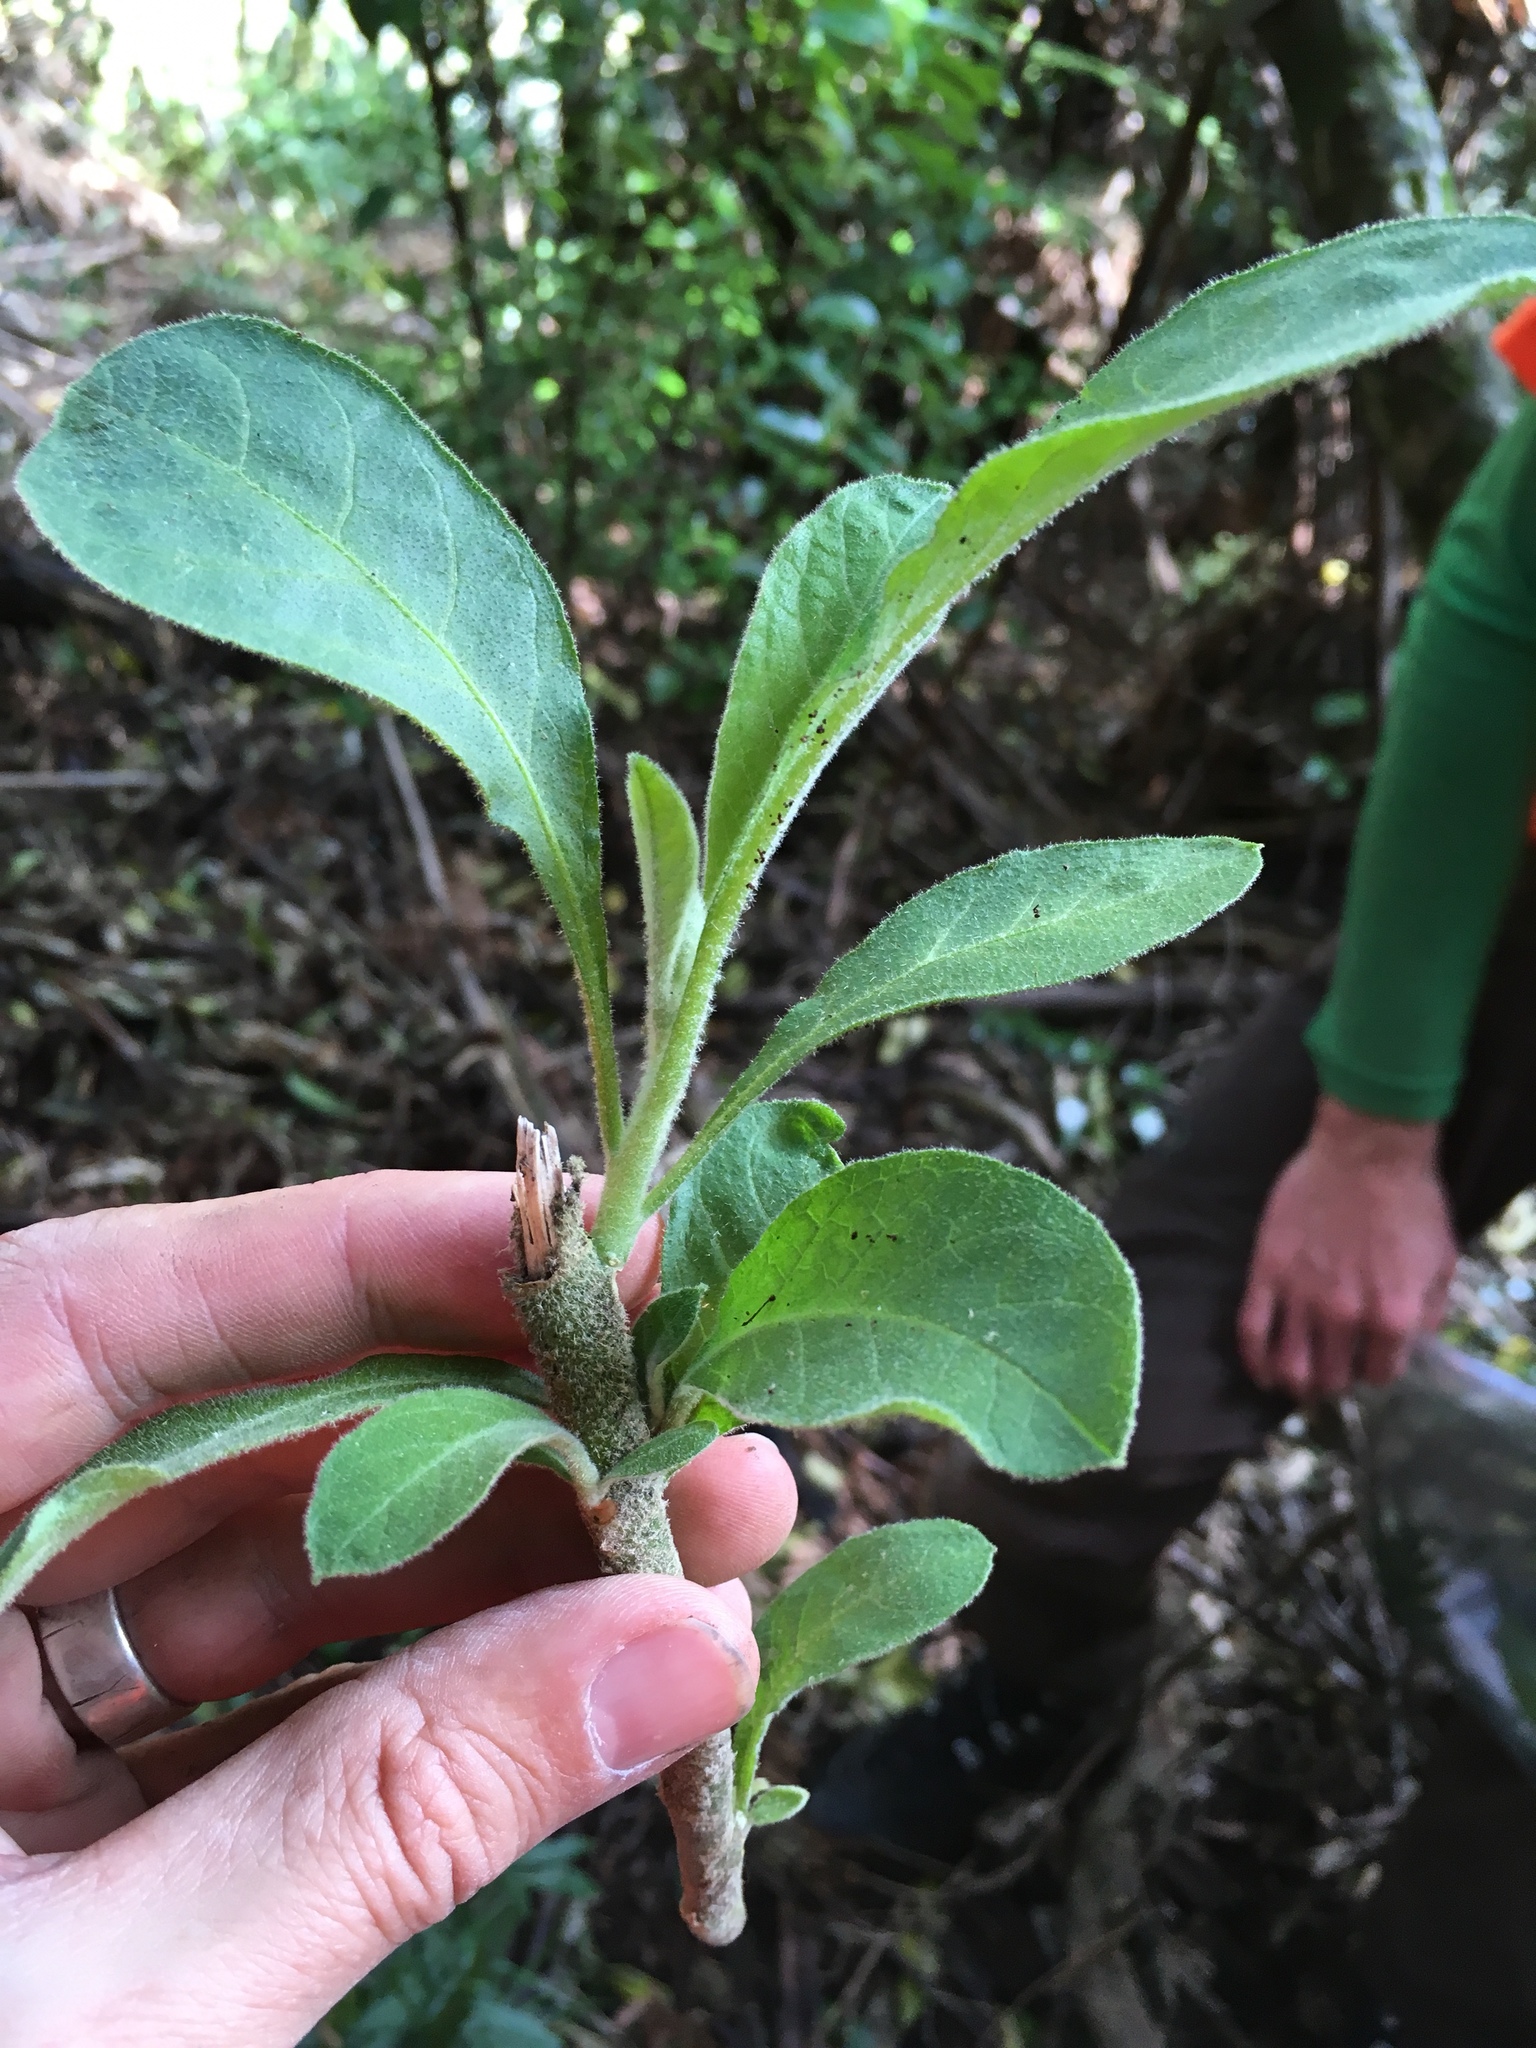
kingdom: Plantae
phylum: Tracheophyta
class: Magnoliopsida
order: Solanales
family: Solanaceae
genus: Solanum
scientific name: Solanum mauritianum
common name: Earleaf nightshade
